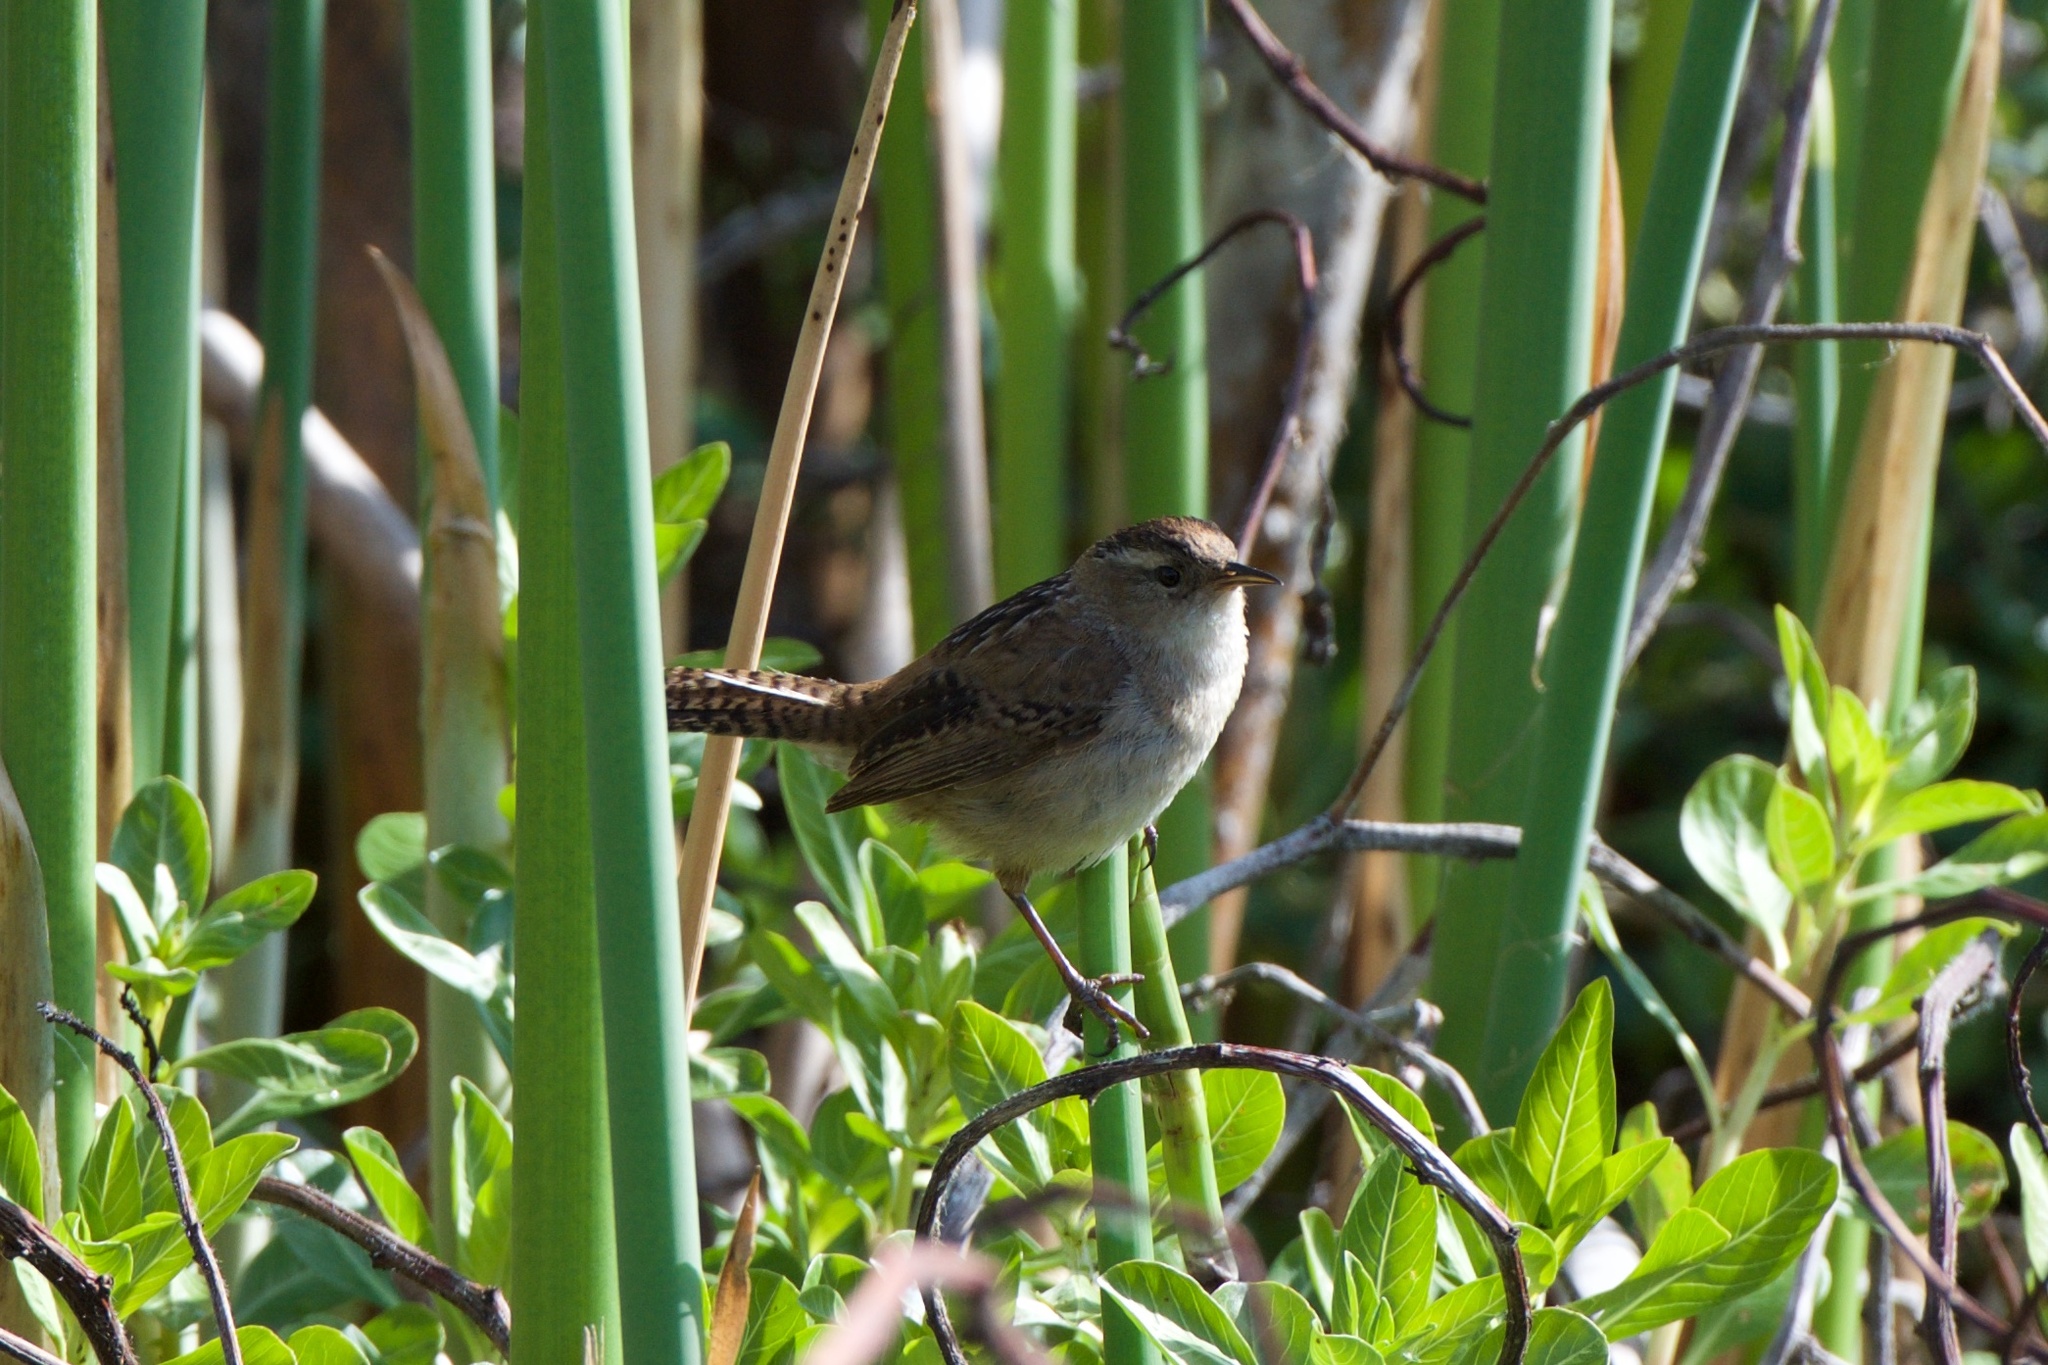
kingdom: Animalia
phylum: Chordata
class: Aves
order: Passeriformes
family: Troglodytidae
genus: Cistothorus
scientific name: Cistothorus palustris
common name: Marsh wren
